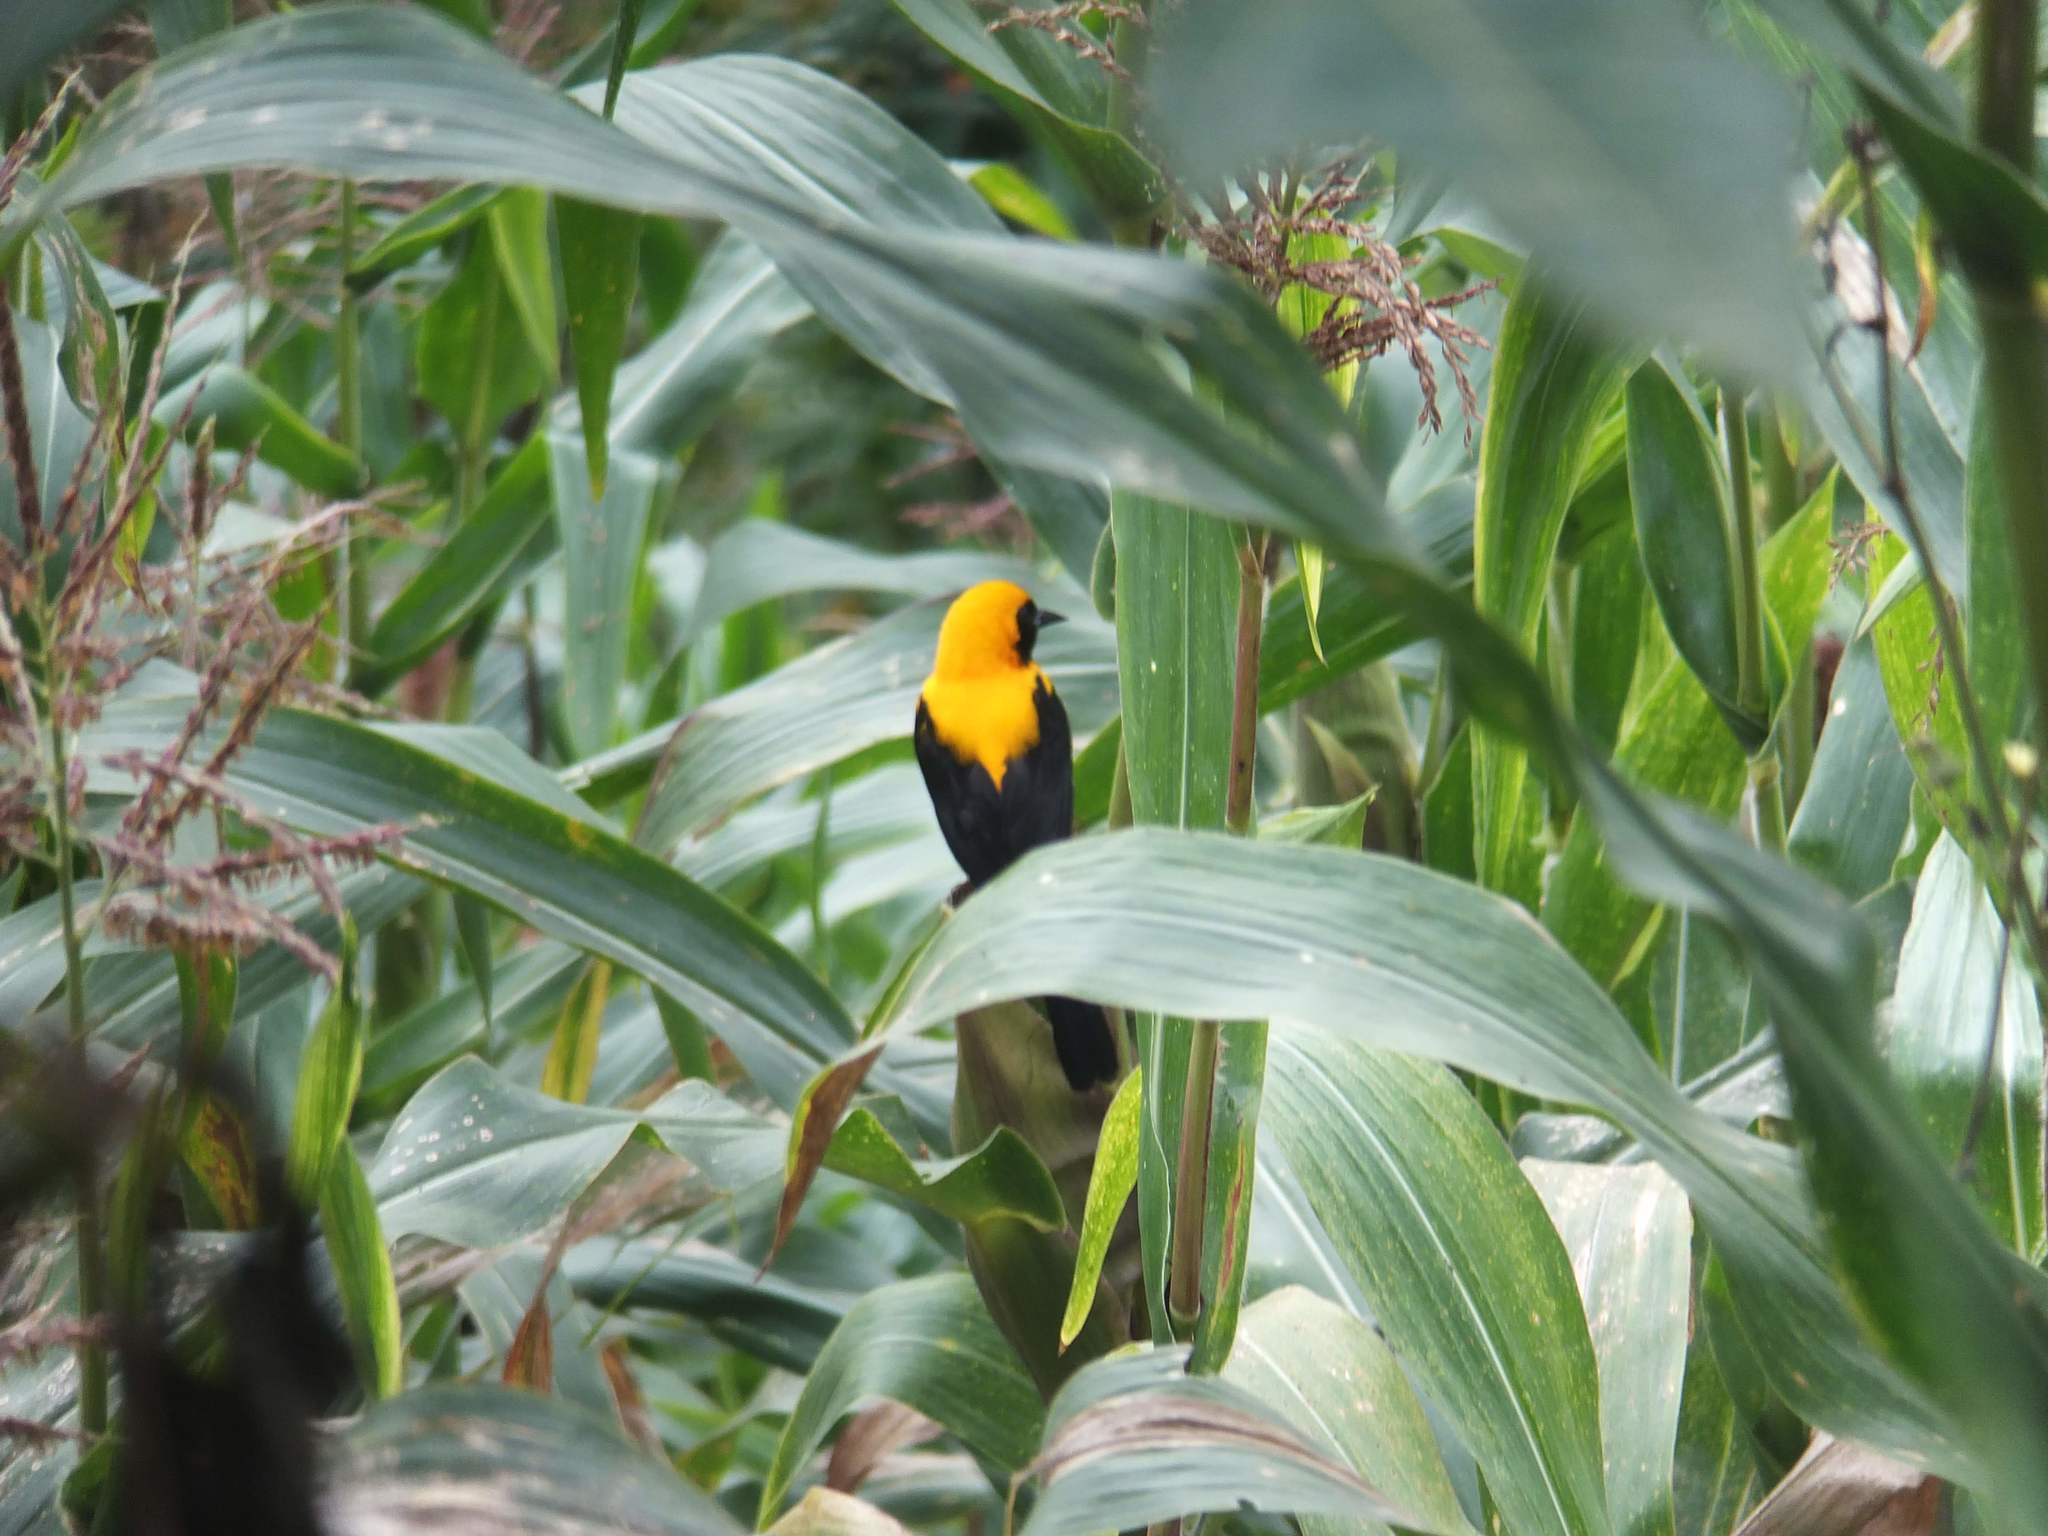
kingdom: Animalia
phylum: Chordata
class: Aves
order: Passeriformes
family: Icteridae
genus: Icterus
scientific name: Icterus chrysater
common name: Yellow-backed oriole
